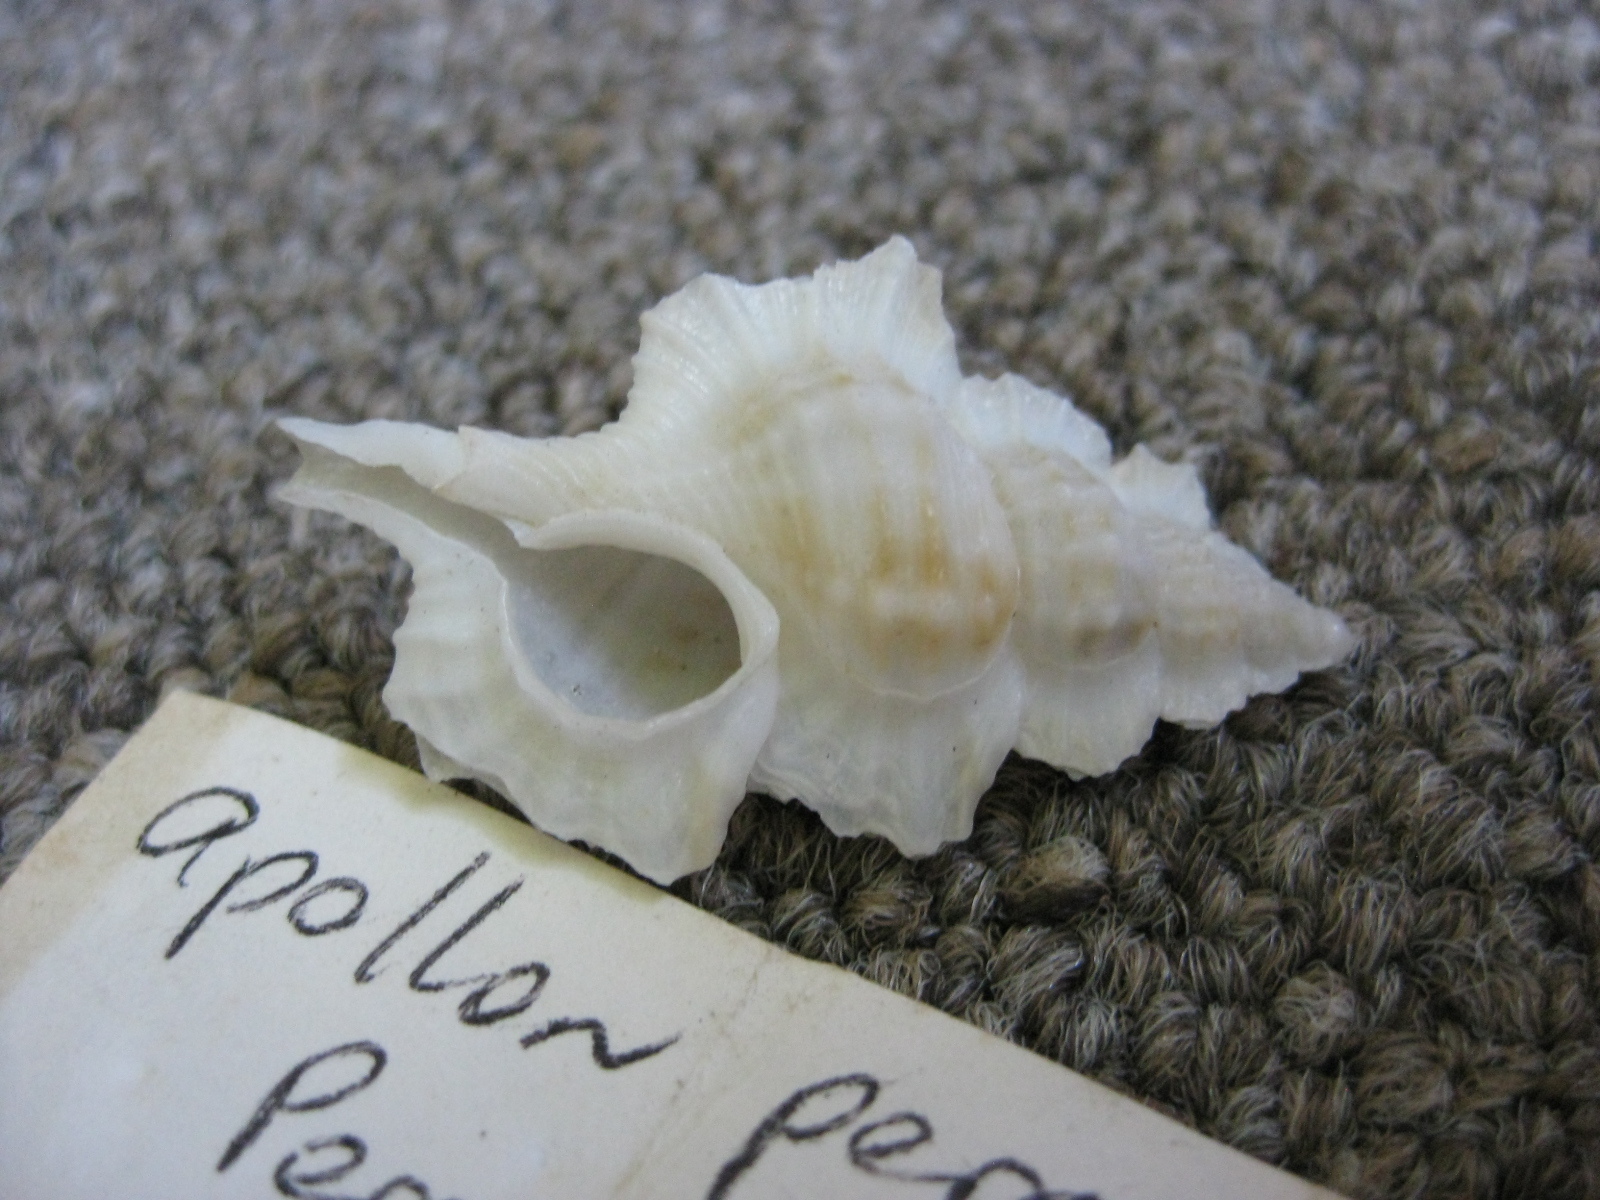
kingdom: Animalia
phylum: Mollusca
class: Gastropoda
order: Littorinimorpha
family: Cymatiidae
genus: Gyrineum
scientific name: Gyrineum perca
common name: Maple leaf triton
